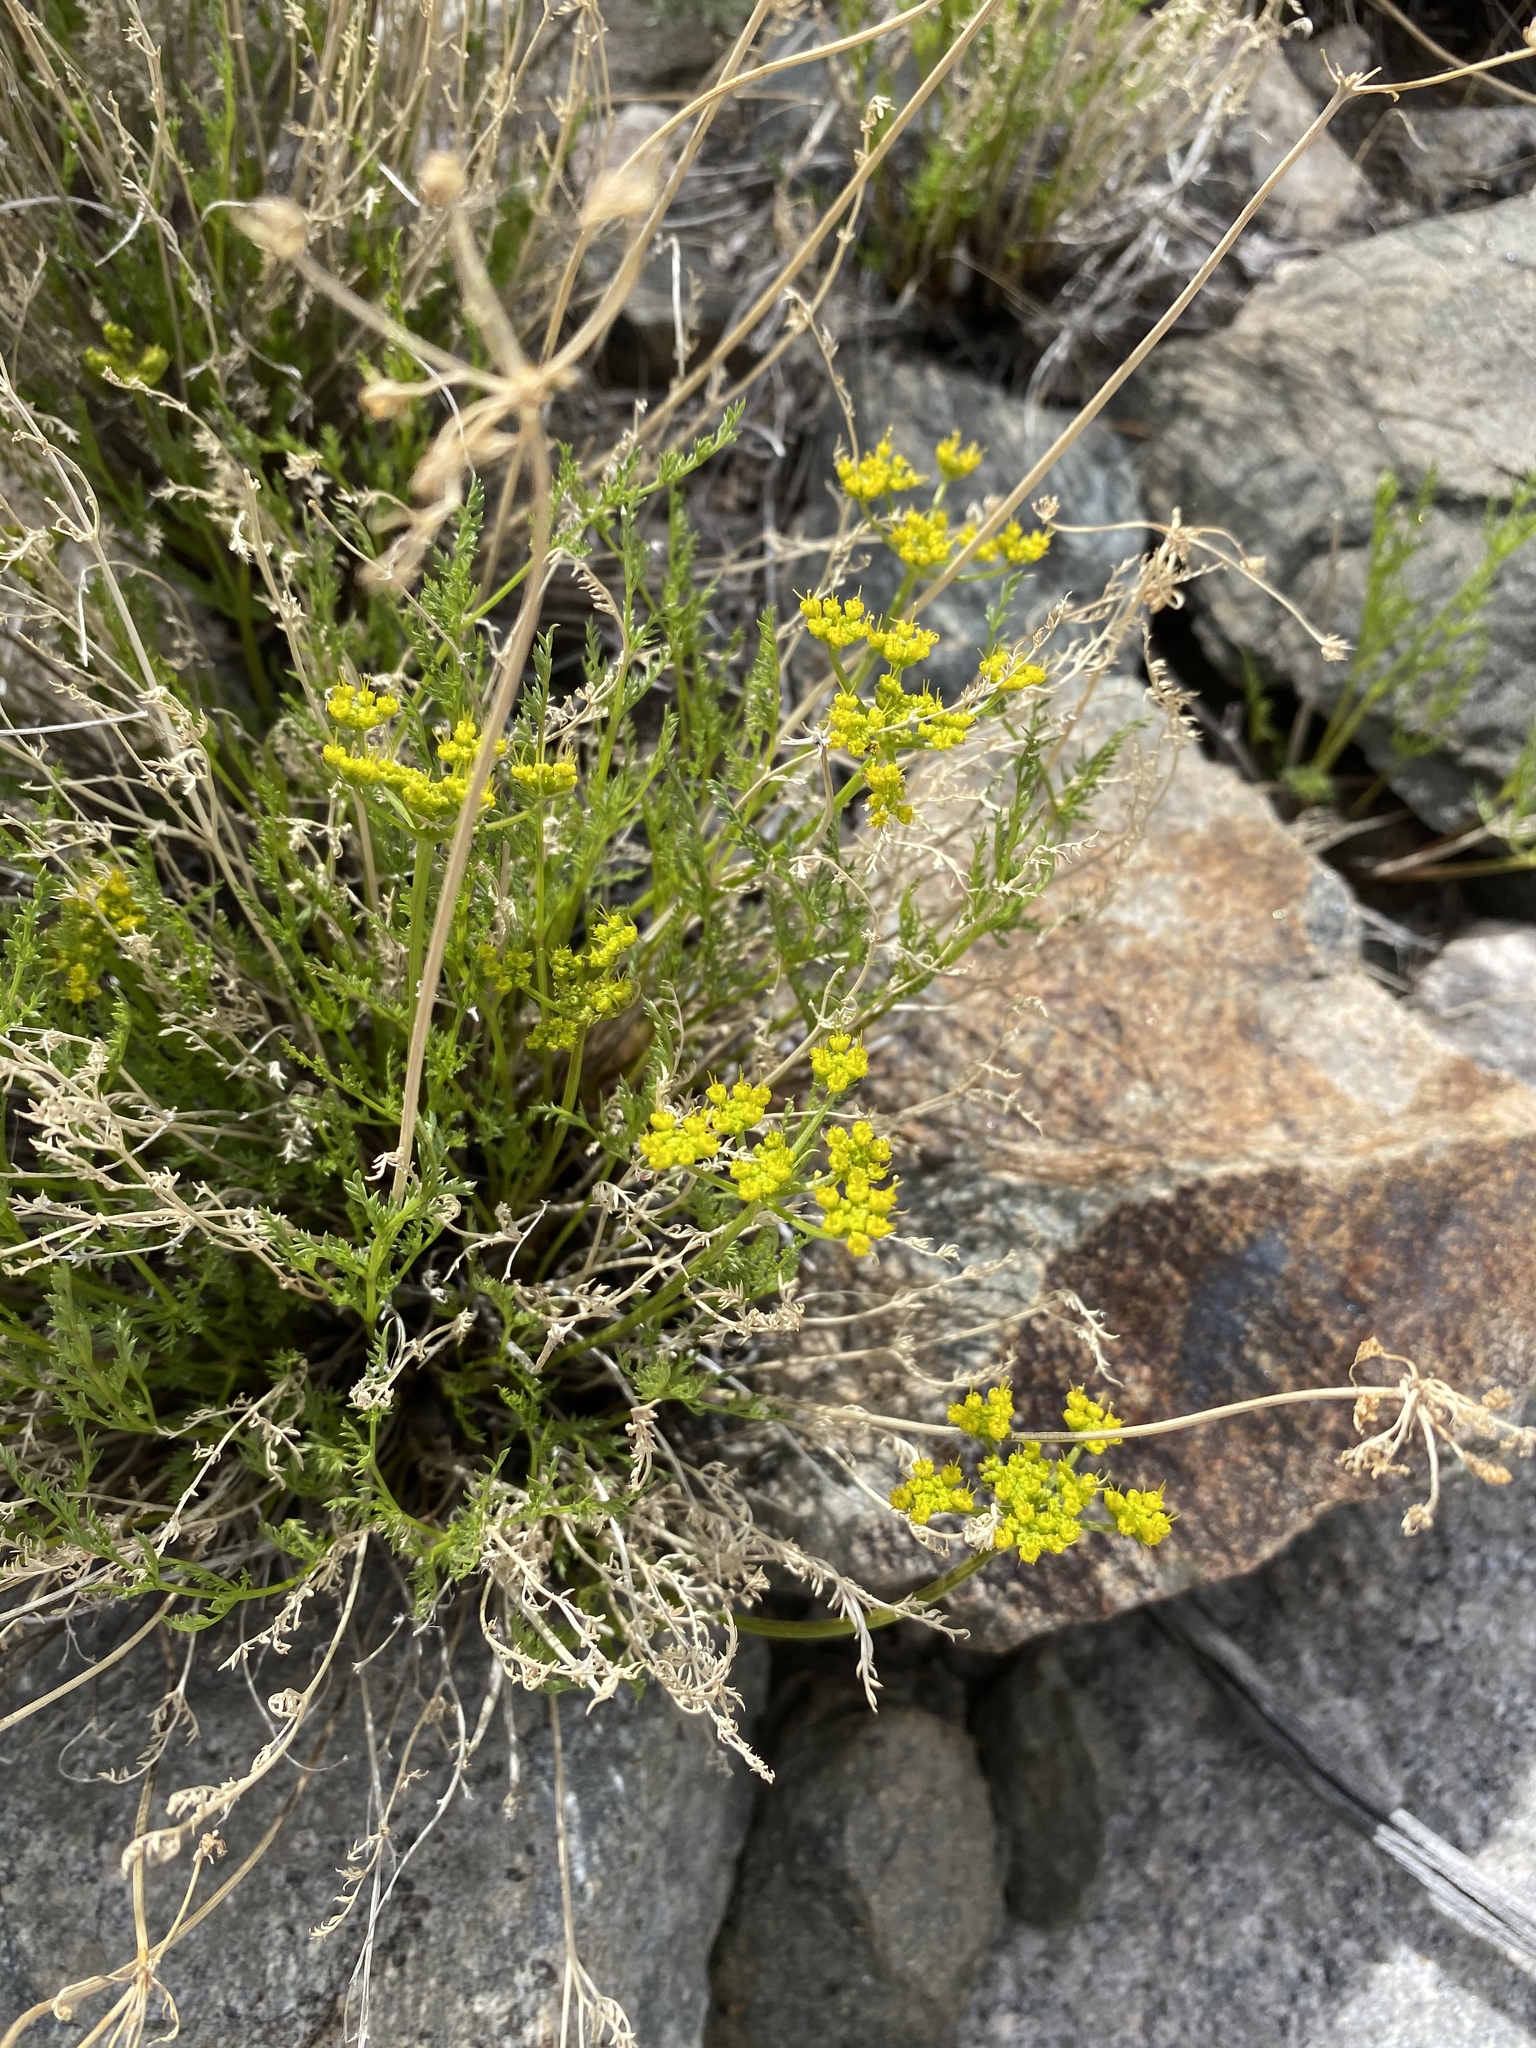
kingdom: Plantae
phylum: Tracheophyta
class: Magnoliopsida
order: Apiales
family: Apiaceae
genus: Pteryxia
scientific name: Pteryxia petraea
